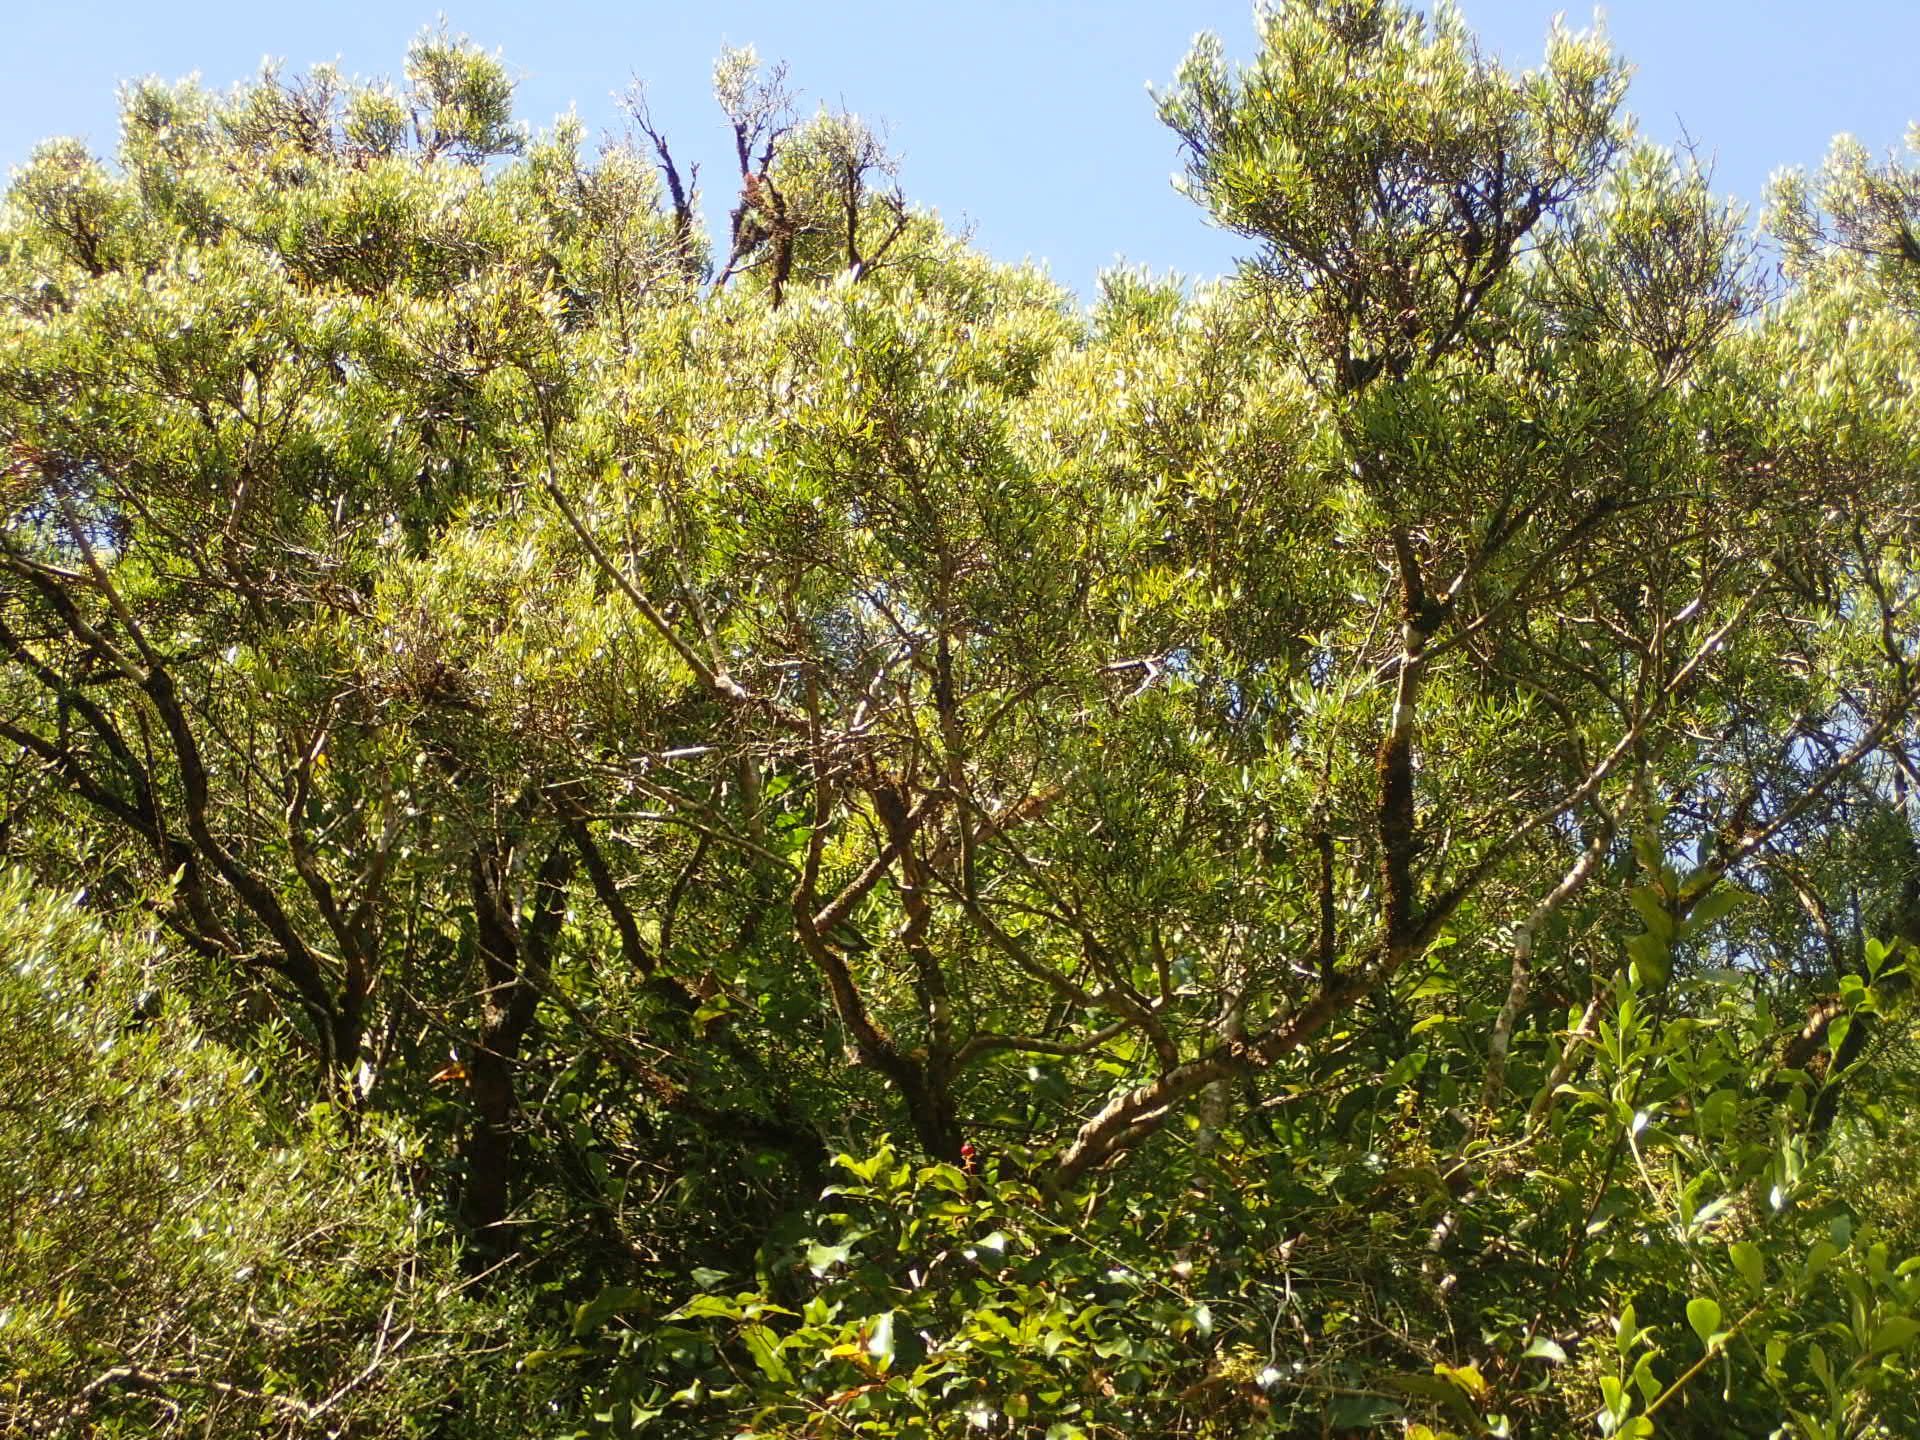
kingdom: Plantae
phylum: Tracheophyta
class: Magnoliopsida
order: Oxalidales
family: Elaeocarpaceae
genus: Elaeocarpus
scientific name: Elaeocarpus hookerianus
